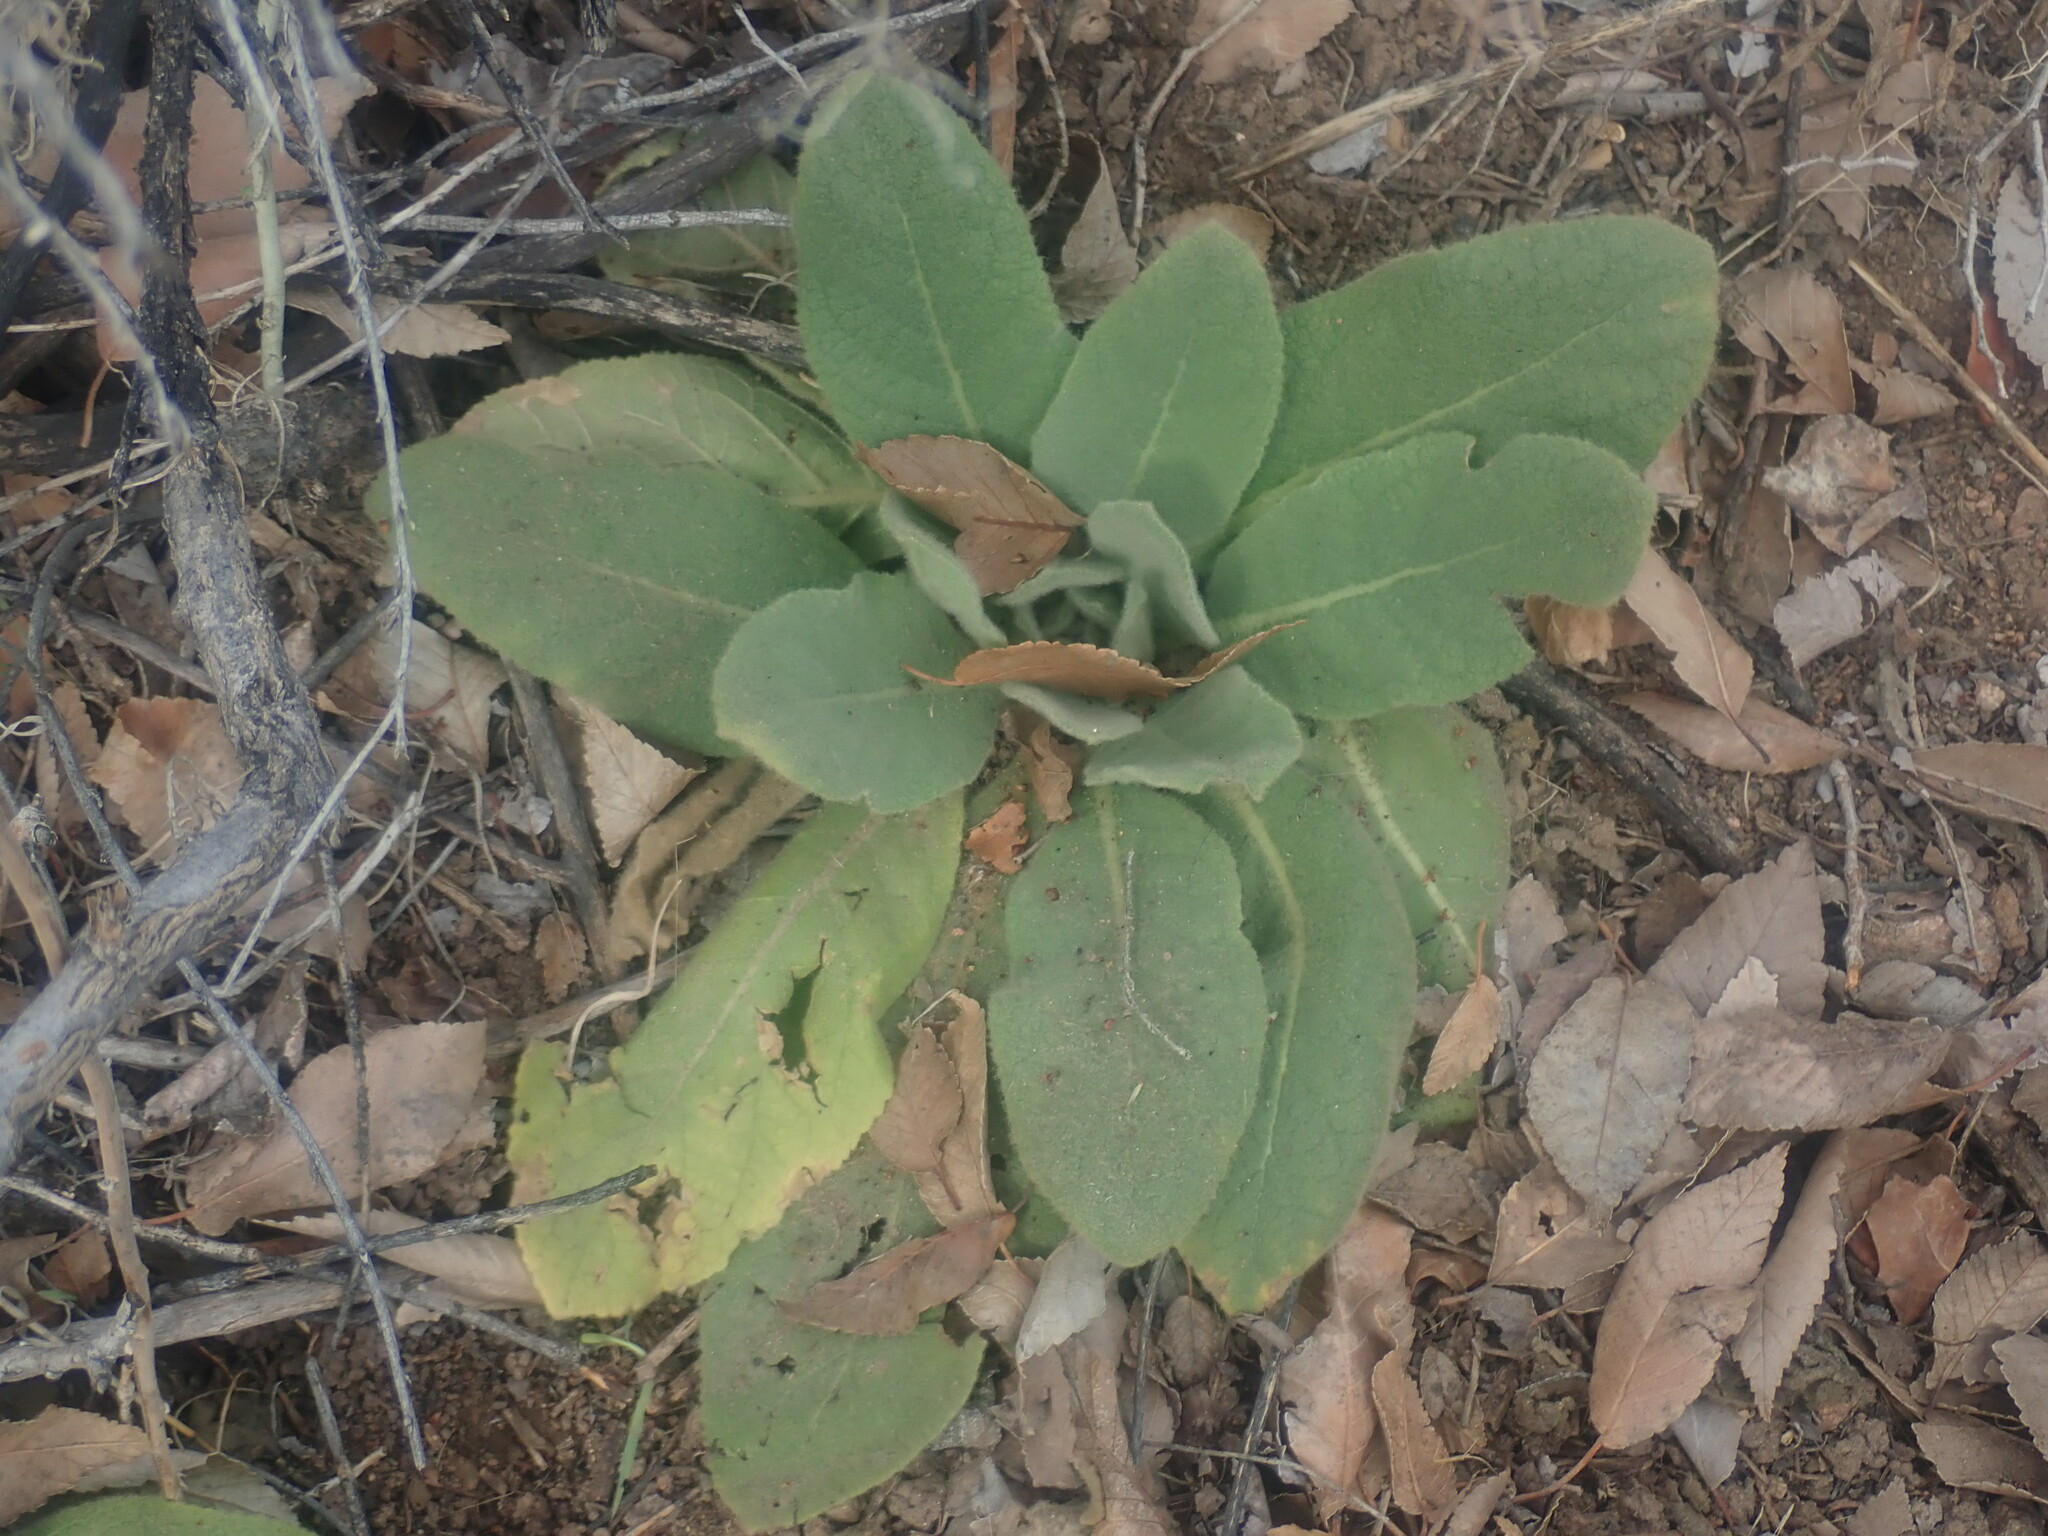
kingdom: Plantae
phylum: Tracheophyta
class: Magnoliopsida
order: Lamiales
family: Scrophulariaceae
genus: Verbascum
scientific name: Verbascum thapsus
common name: Common mullein
